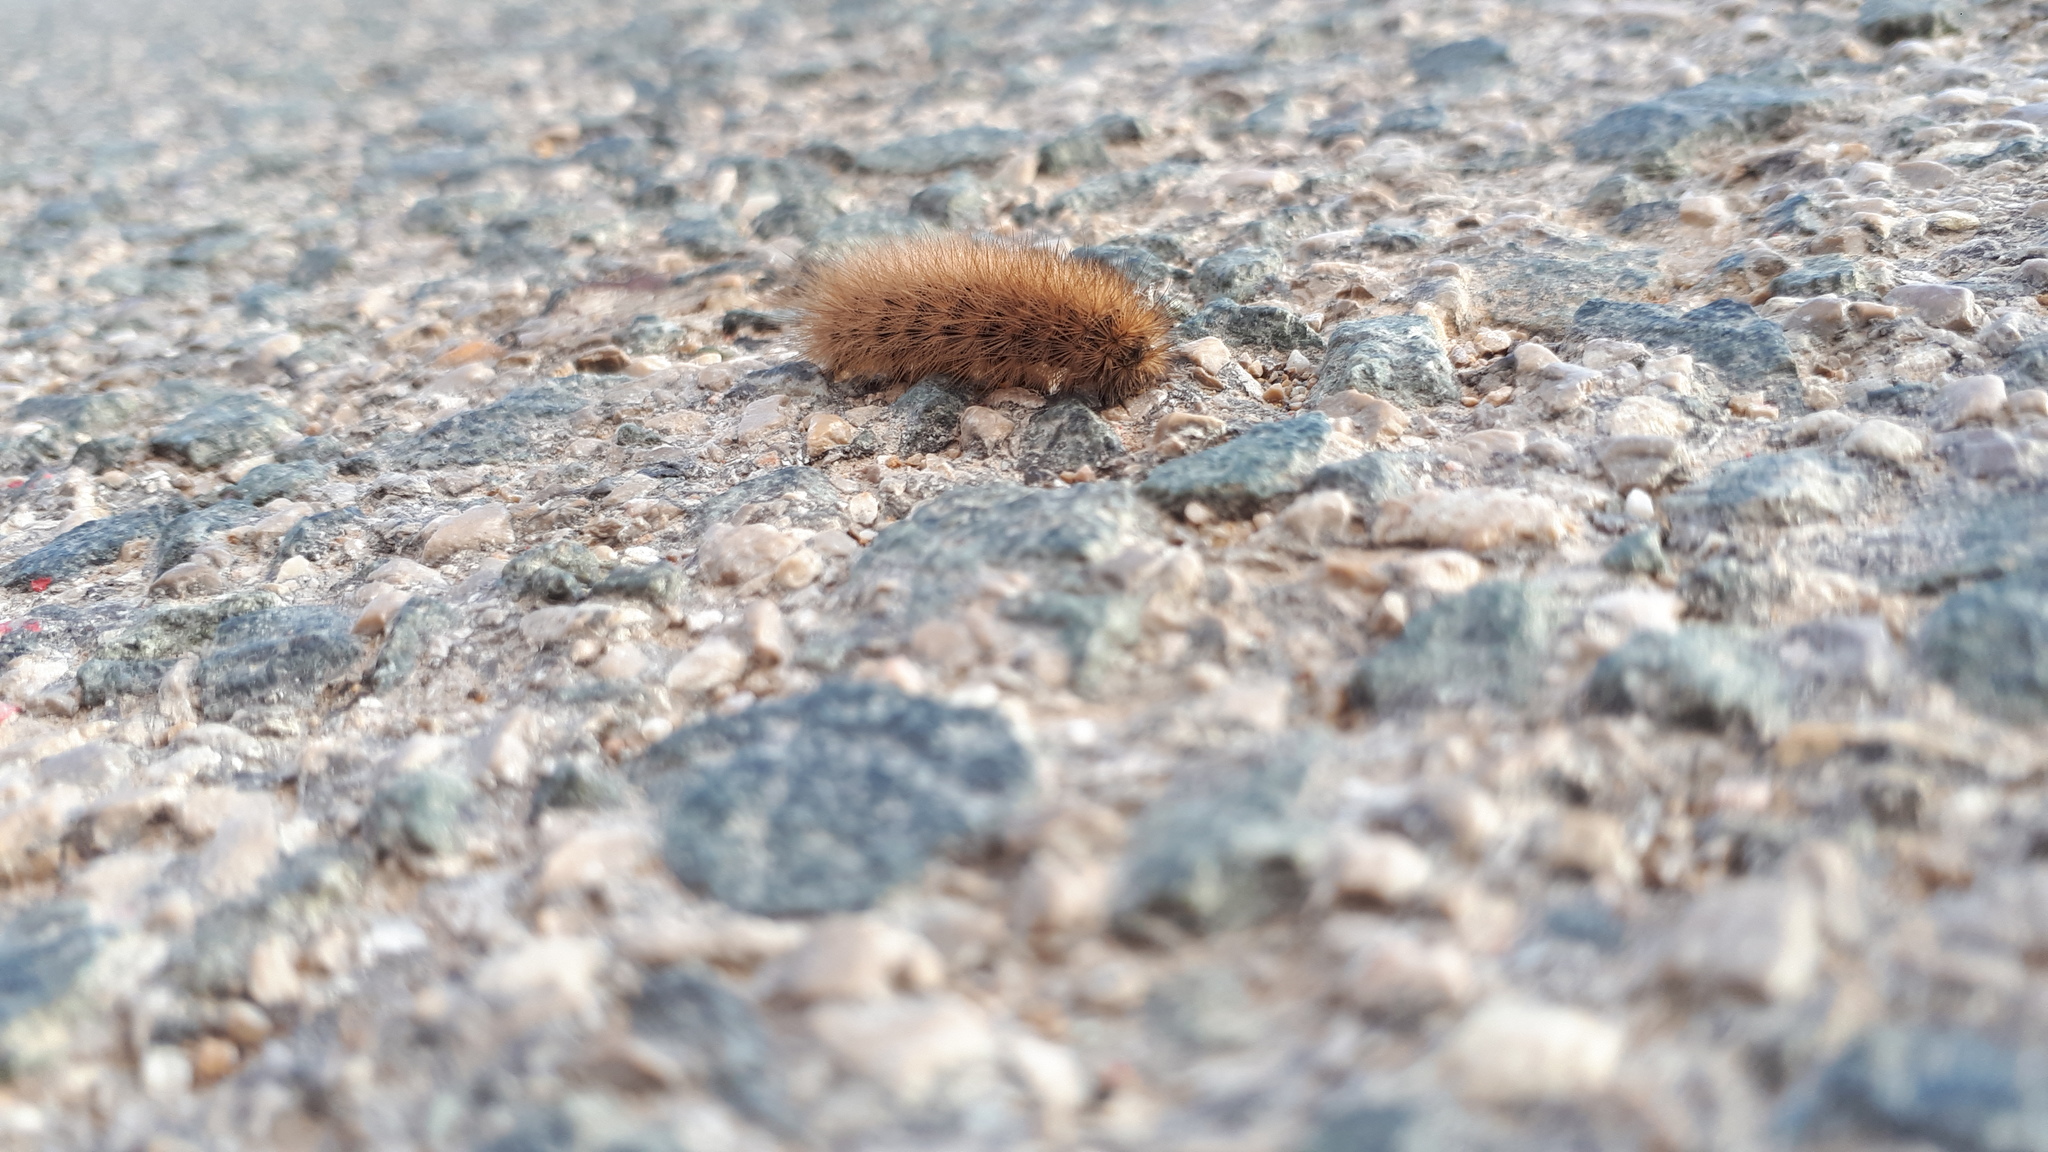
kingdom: Animalia
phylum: Arthropoda
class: Insecta
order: Lepidoptera
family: Erebidae
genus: Phragmatobia
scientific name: Phragmatobia fuliginosa
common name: Ruby tiger
